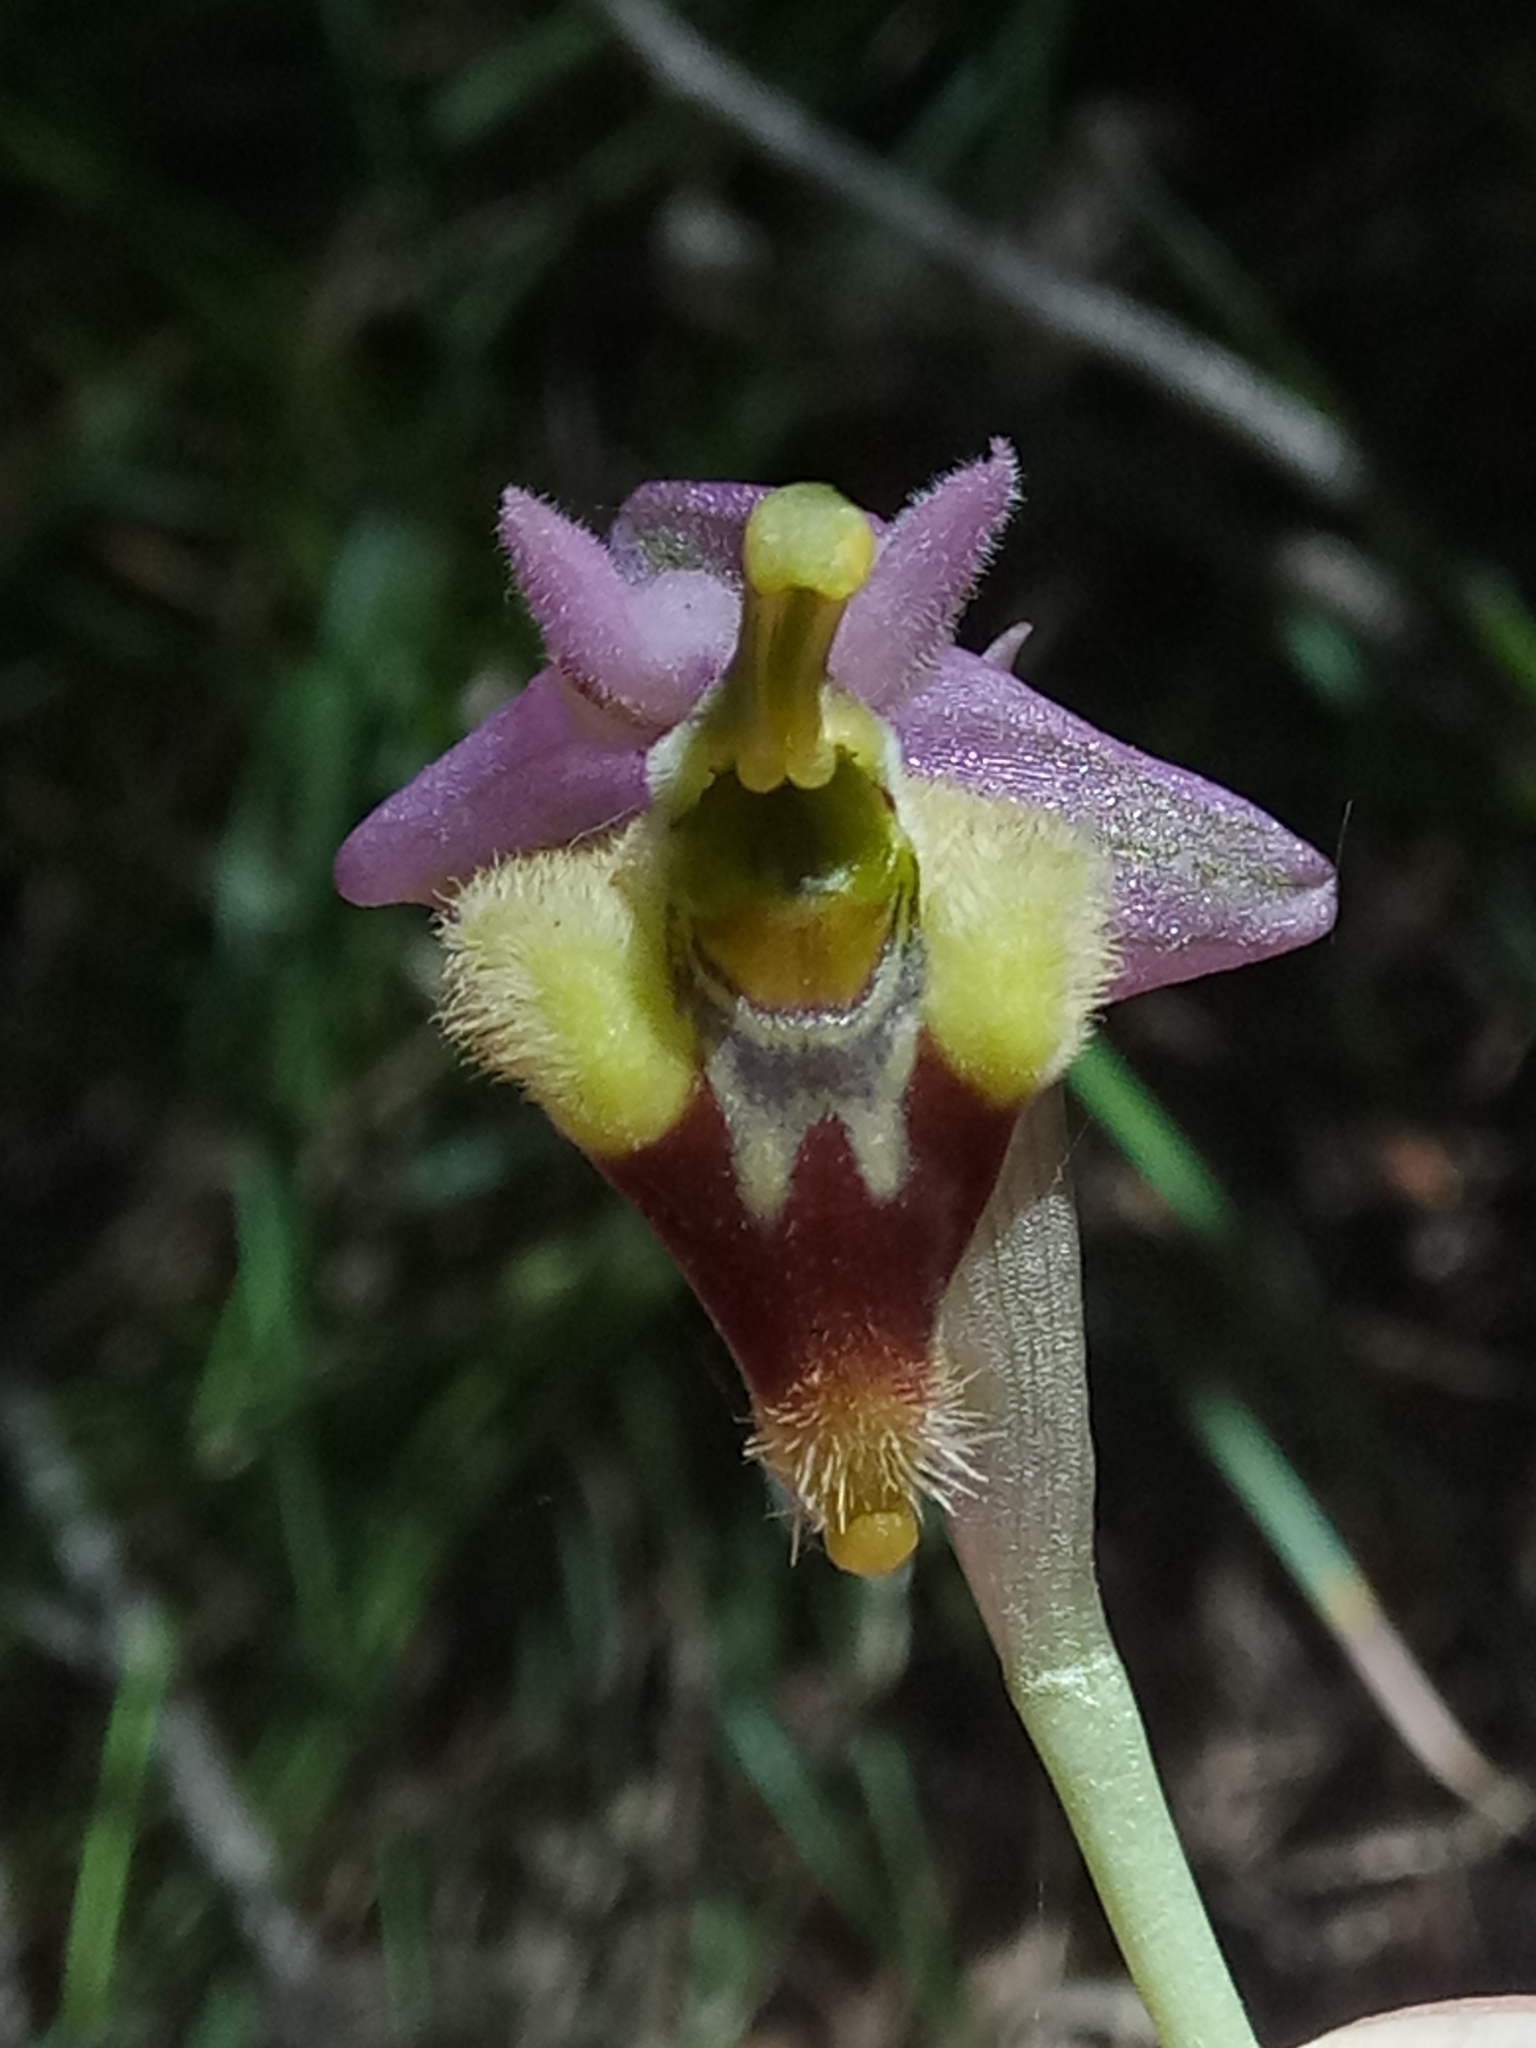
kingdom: Plantae
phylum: Tracheophyta
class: Liliopsida
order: Asparagales
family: Orchidaceae
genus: Ophrys
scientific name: Ophrys tenthredinifera
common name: Sawfly orchid
